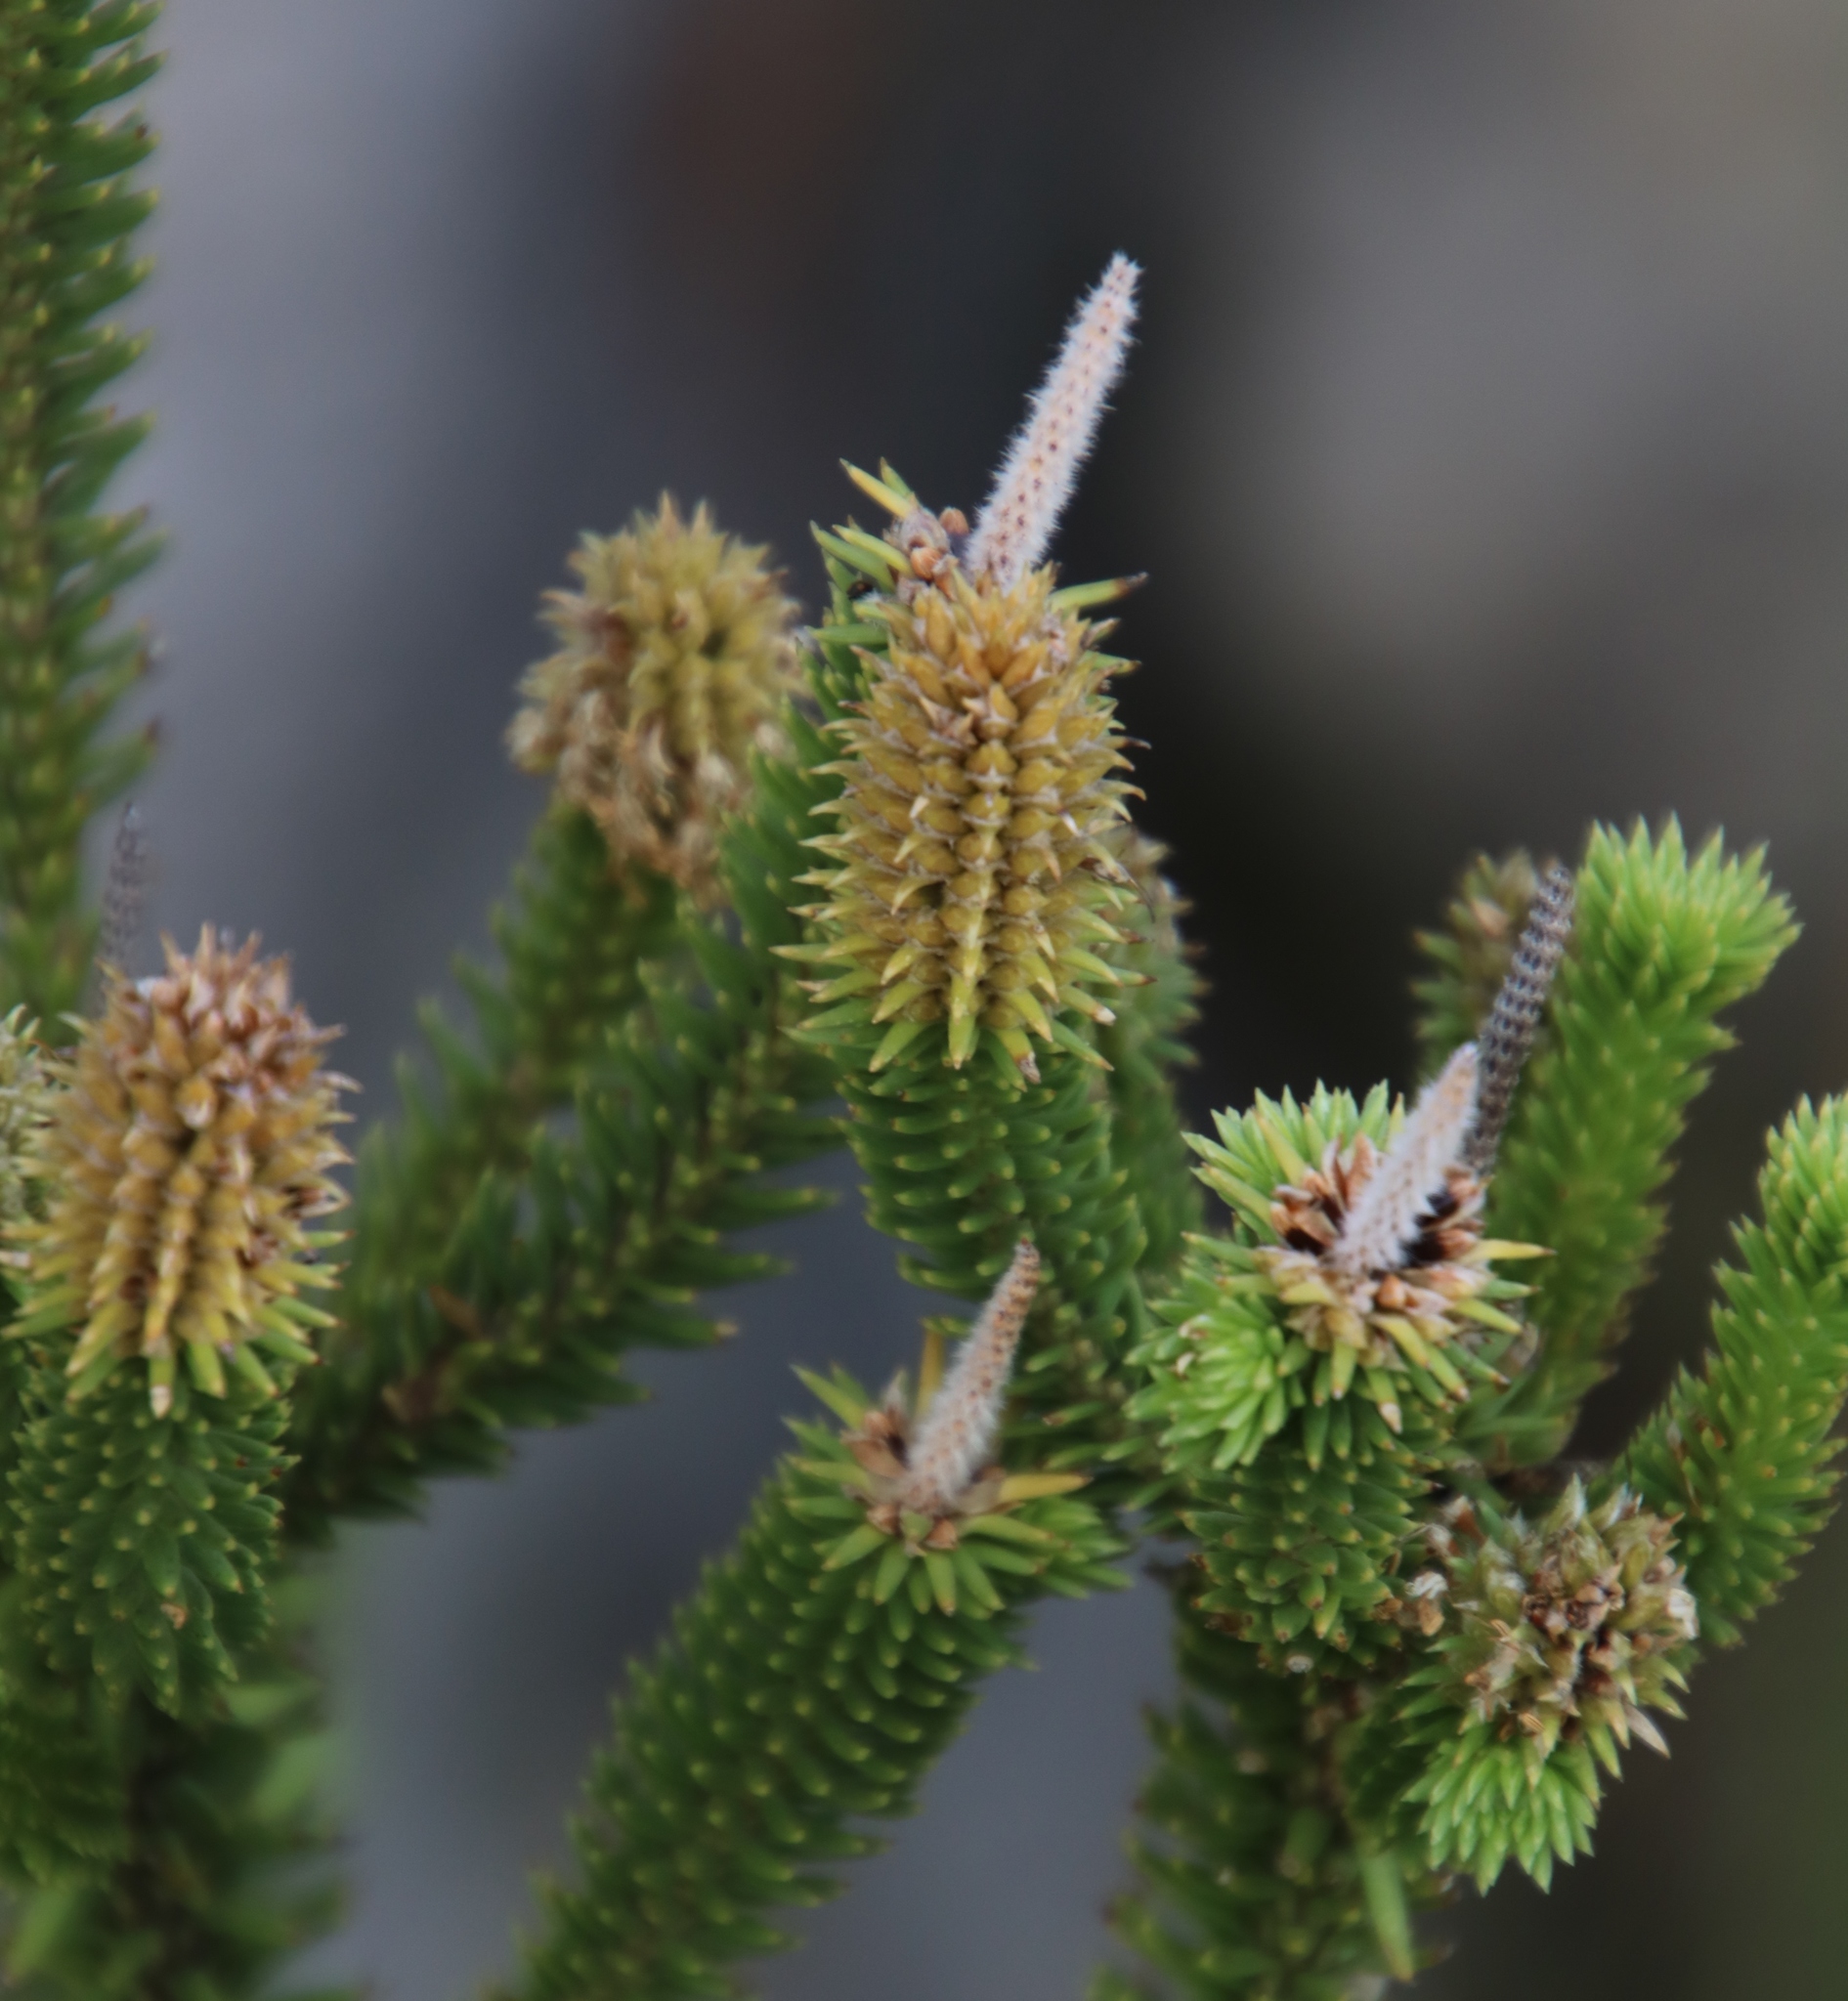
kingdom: Plantae
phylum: Tracheophyta
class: Magnoliopsida
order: Lamiales
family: Stilbaceae
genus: Stilbe
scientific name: Stilbe vestita
